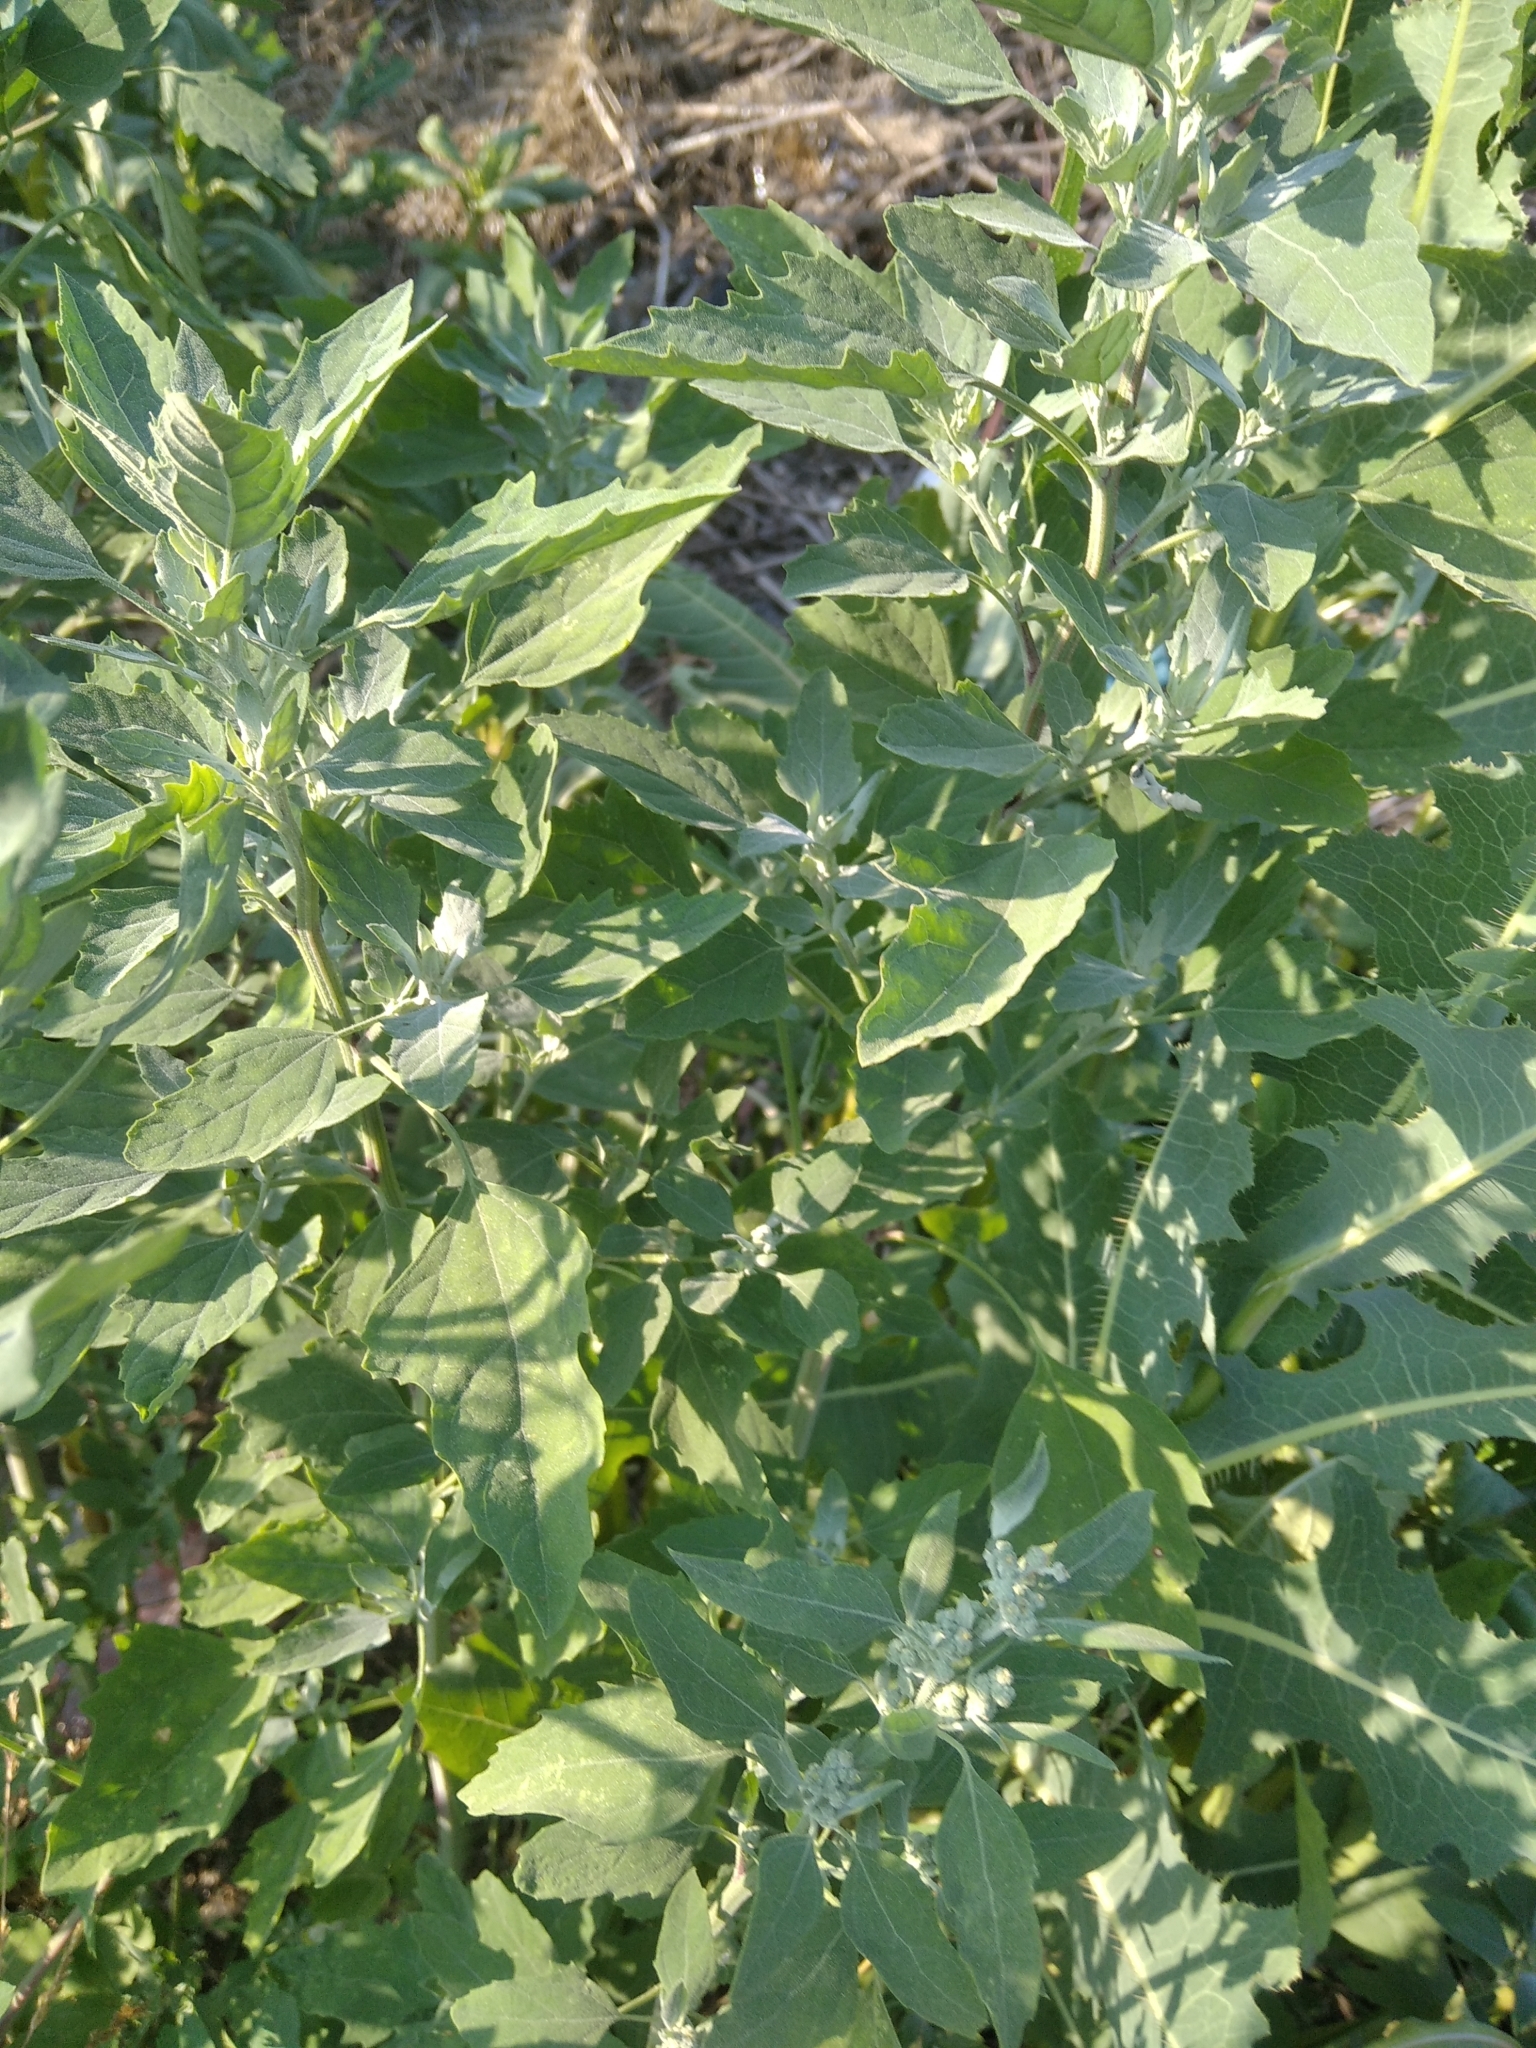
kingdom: Plantae
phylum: Tracheophyta
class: Magnoliopsida
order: Caryophyllales
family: Amaranthaceae
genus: Chenopodium
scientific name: Chenopodium album
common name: Fat-hen
